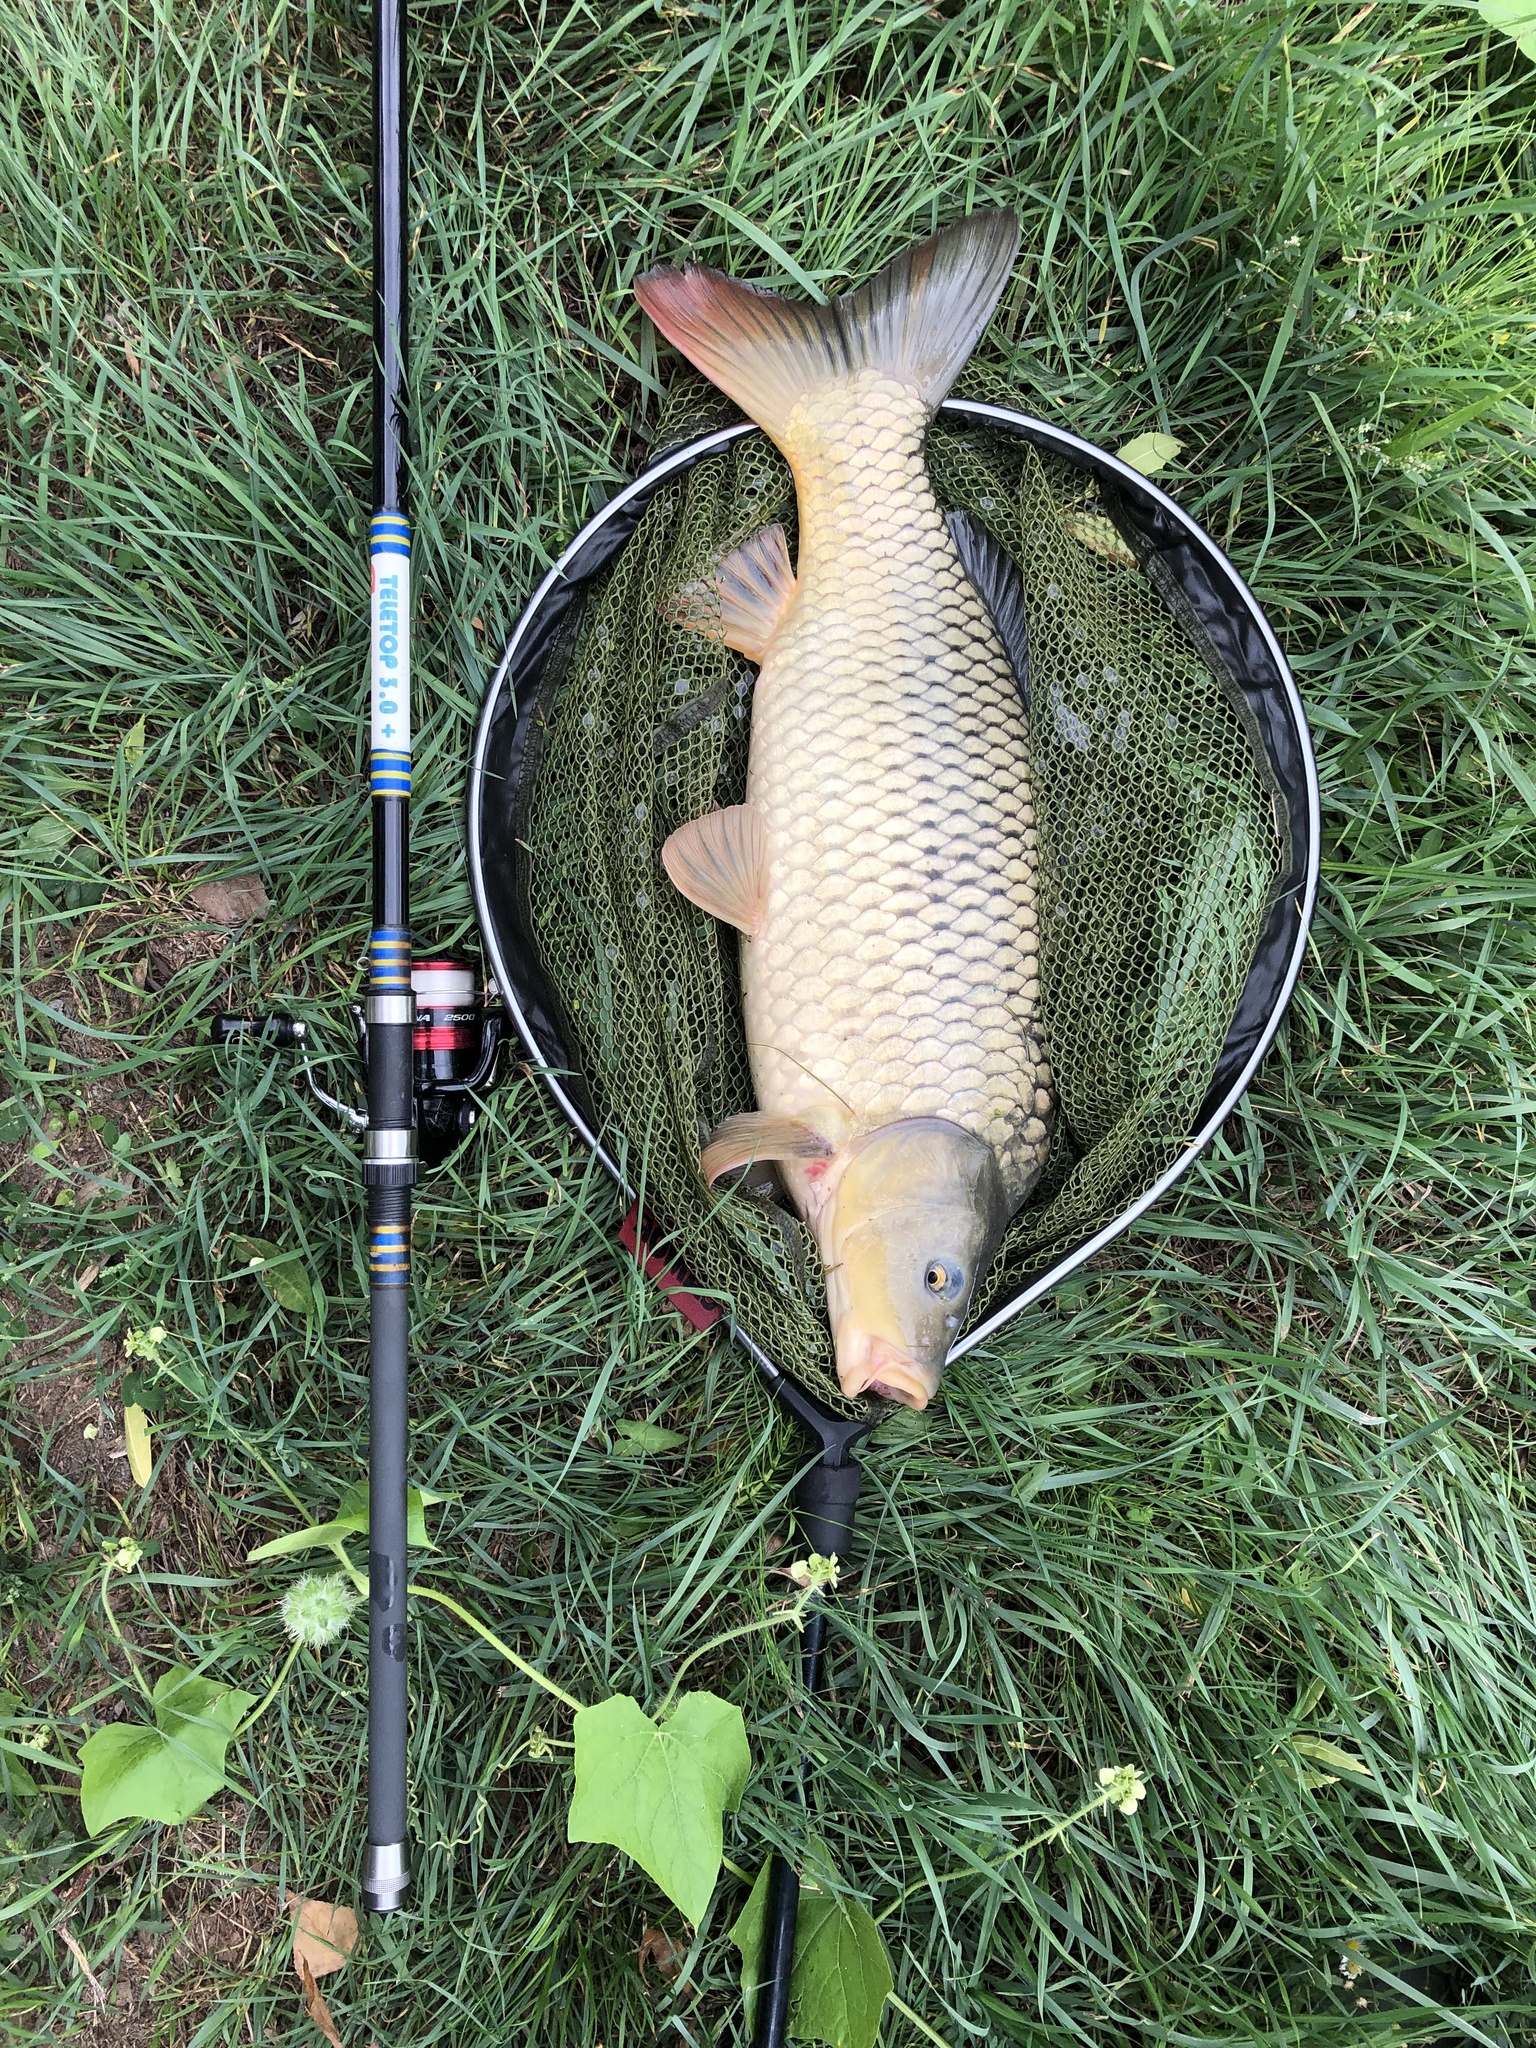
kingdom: Animalia
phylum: Chordata
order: Cypriniformes
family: Cyprinidae
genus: Cyprinus
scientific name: Cyprinus carpio
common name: Common carp
